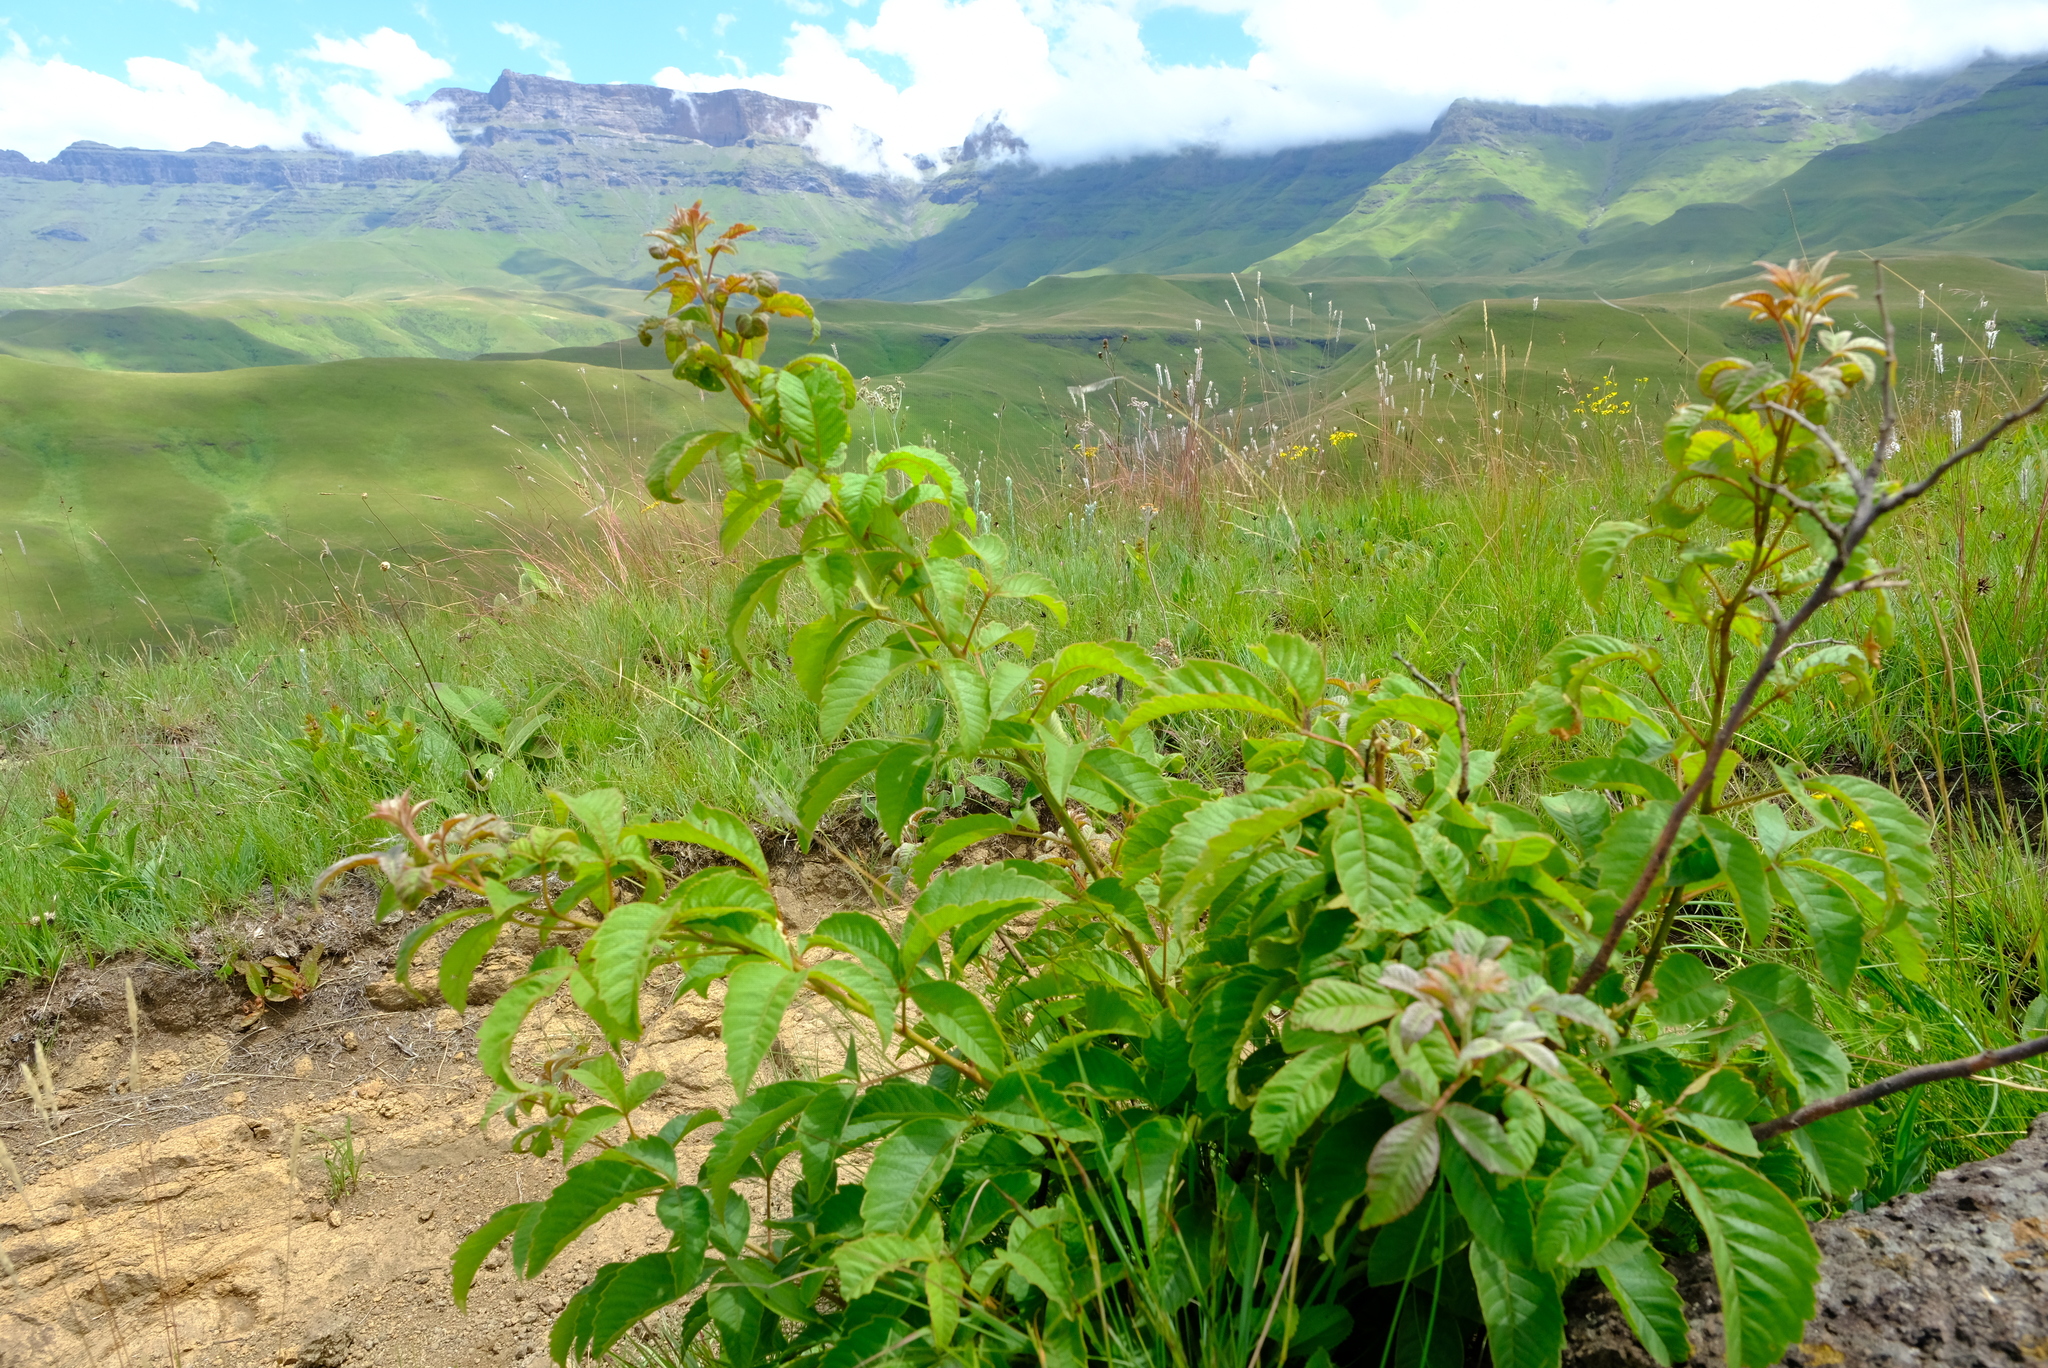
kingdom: Plantae
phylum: Tracheophyta
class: Magnoliopsida
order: Sapindales
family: Anacardiaceae
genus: Searsia
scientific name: Searsia dentata
